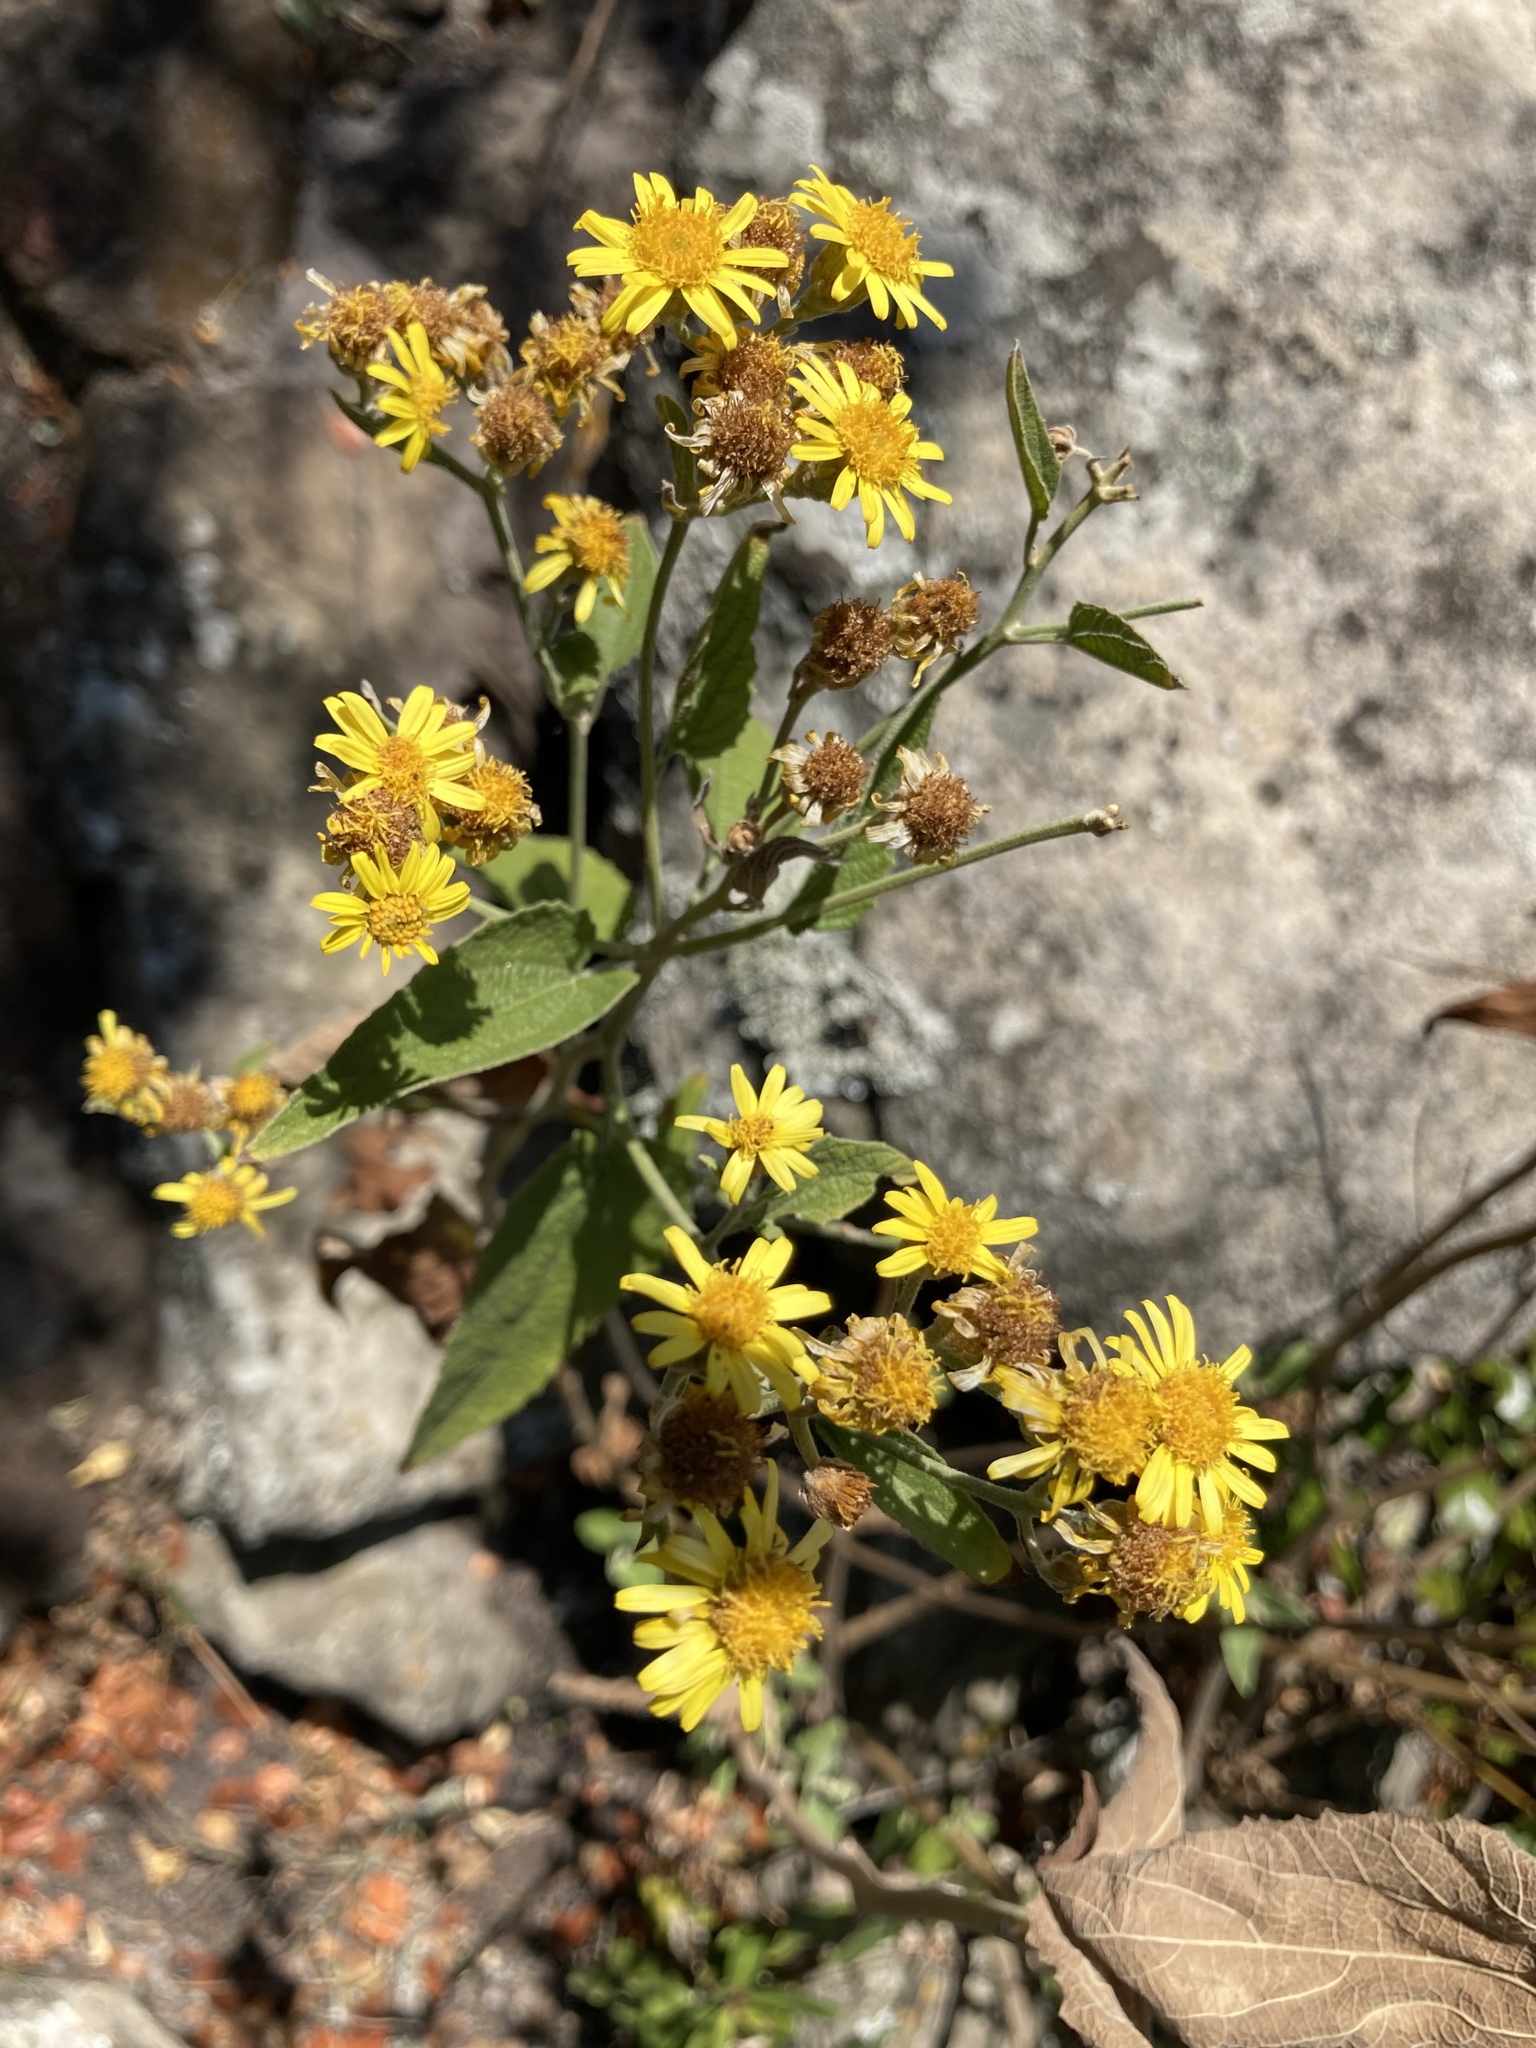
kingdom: Plantae
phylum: Tracheophyta
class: Magnoliopsida
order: Asterales
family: Asteraceae
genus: Anisopappus
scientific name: Anisopappus junodii
